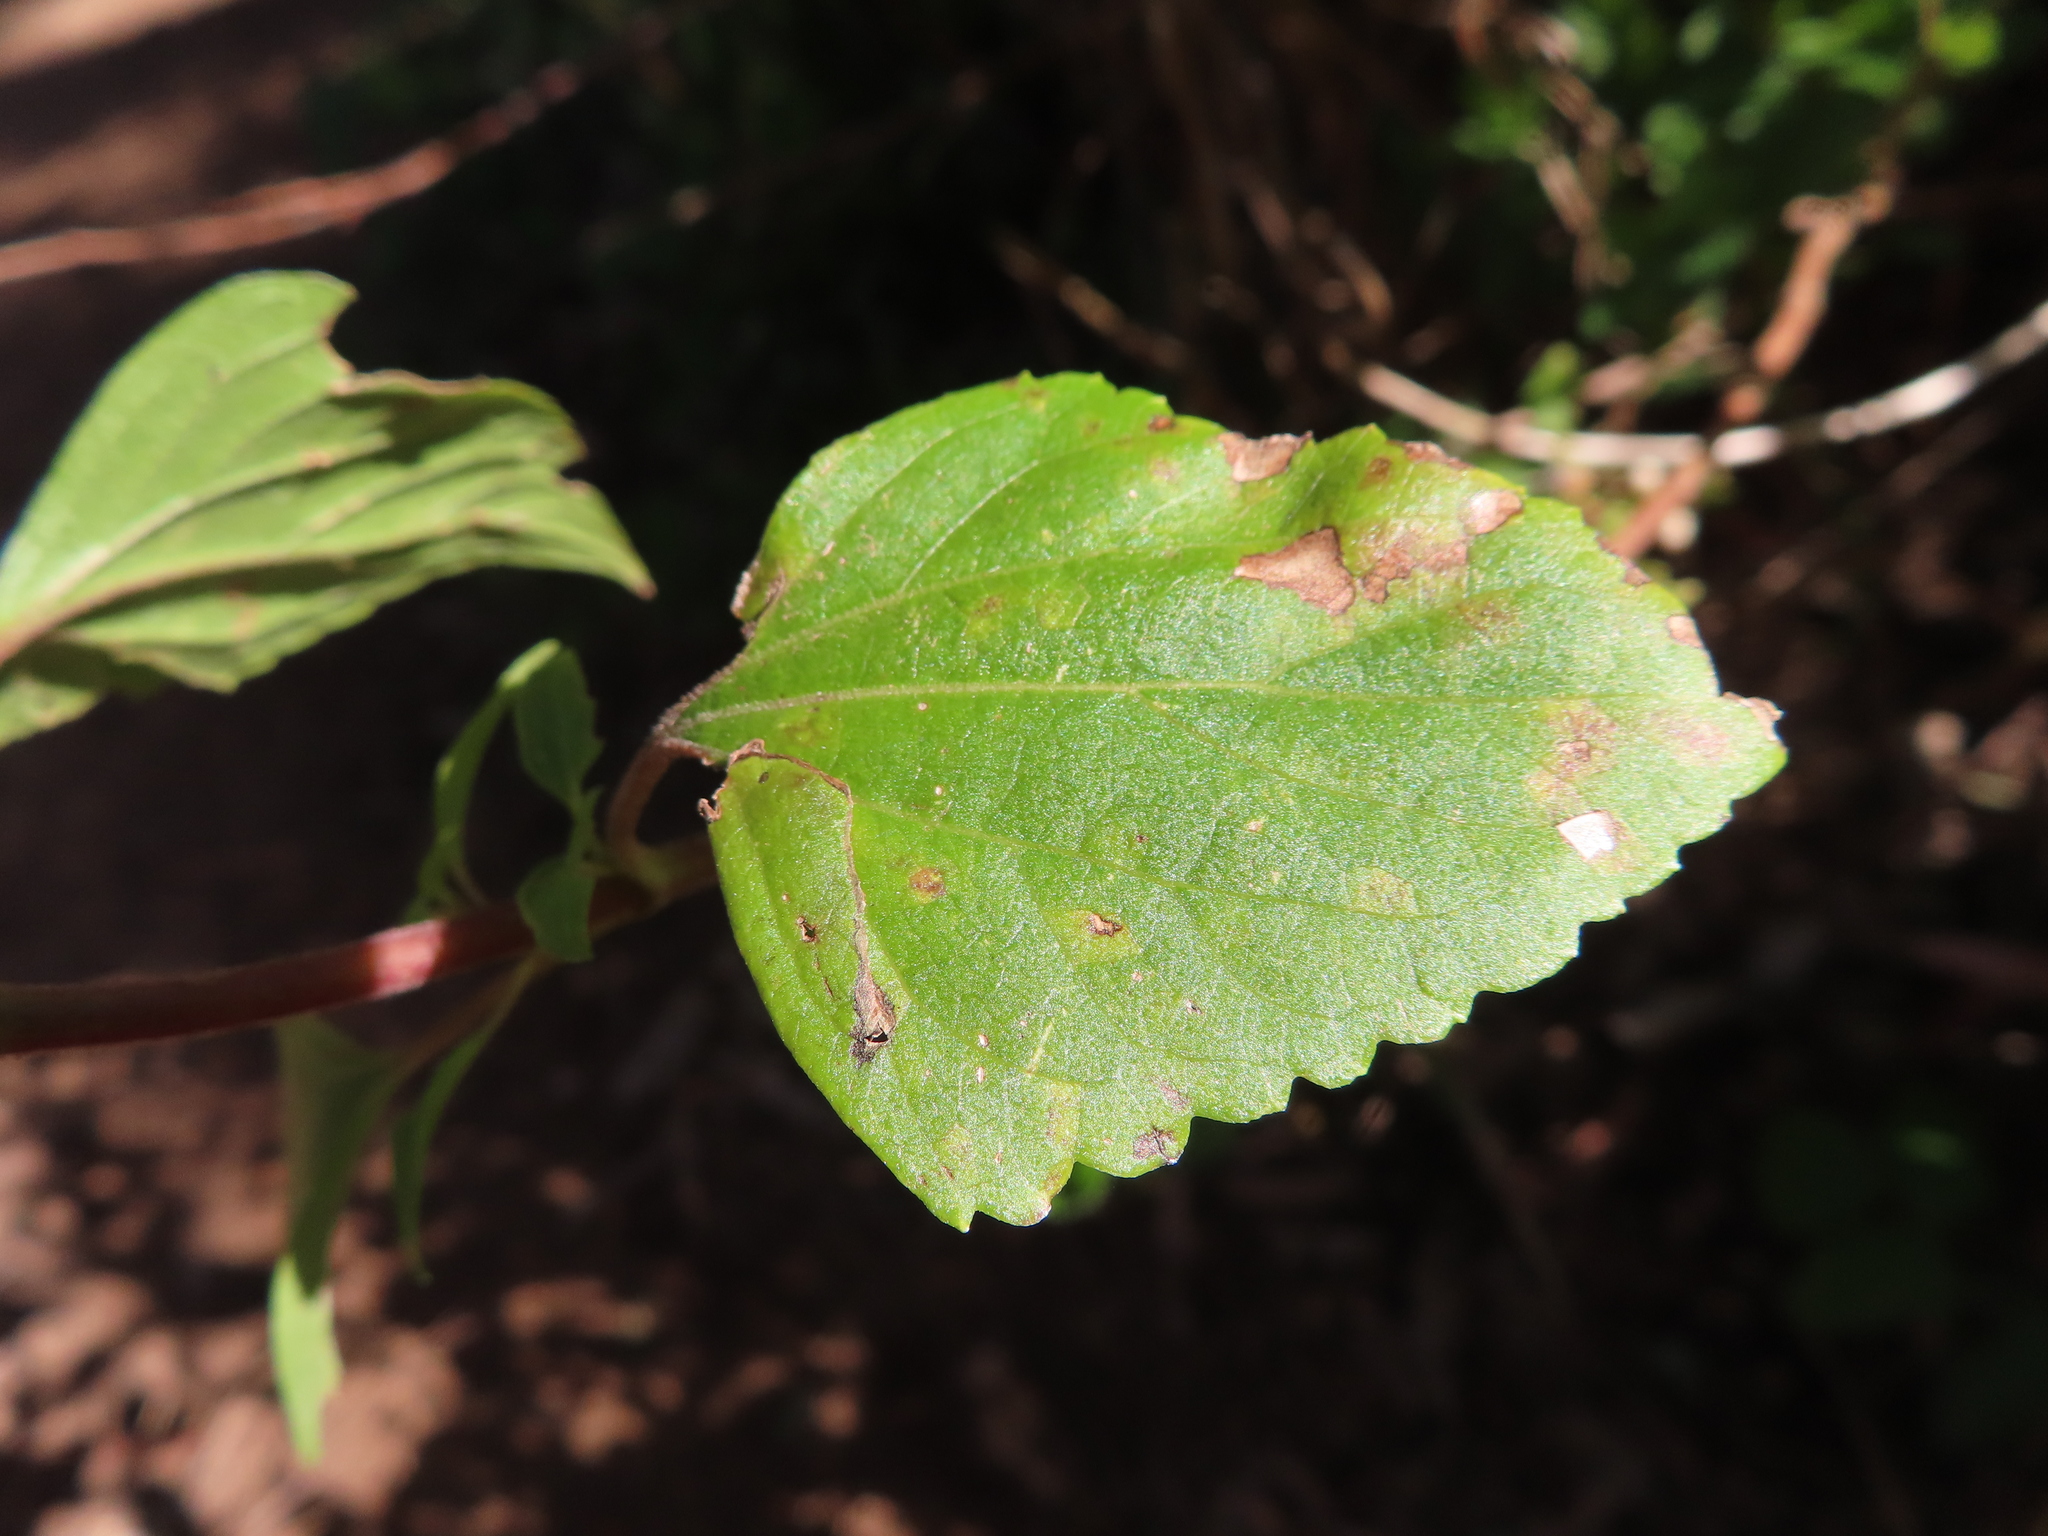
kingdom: Plantae
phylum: Tracheophyta
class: Magnoliopsida
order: Asterales
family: Asteraceae
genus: Ageratina
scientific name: Ageratina adenophora
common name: Sticky snakeroot
